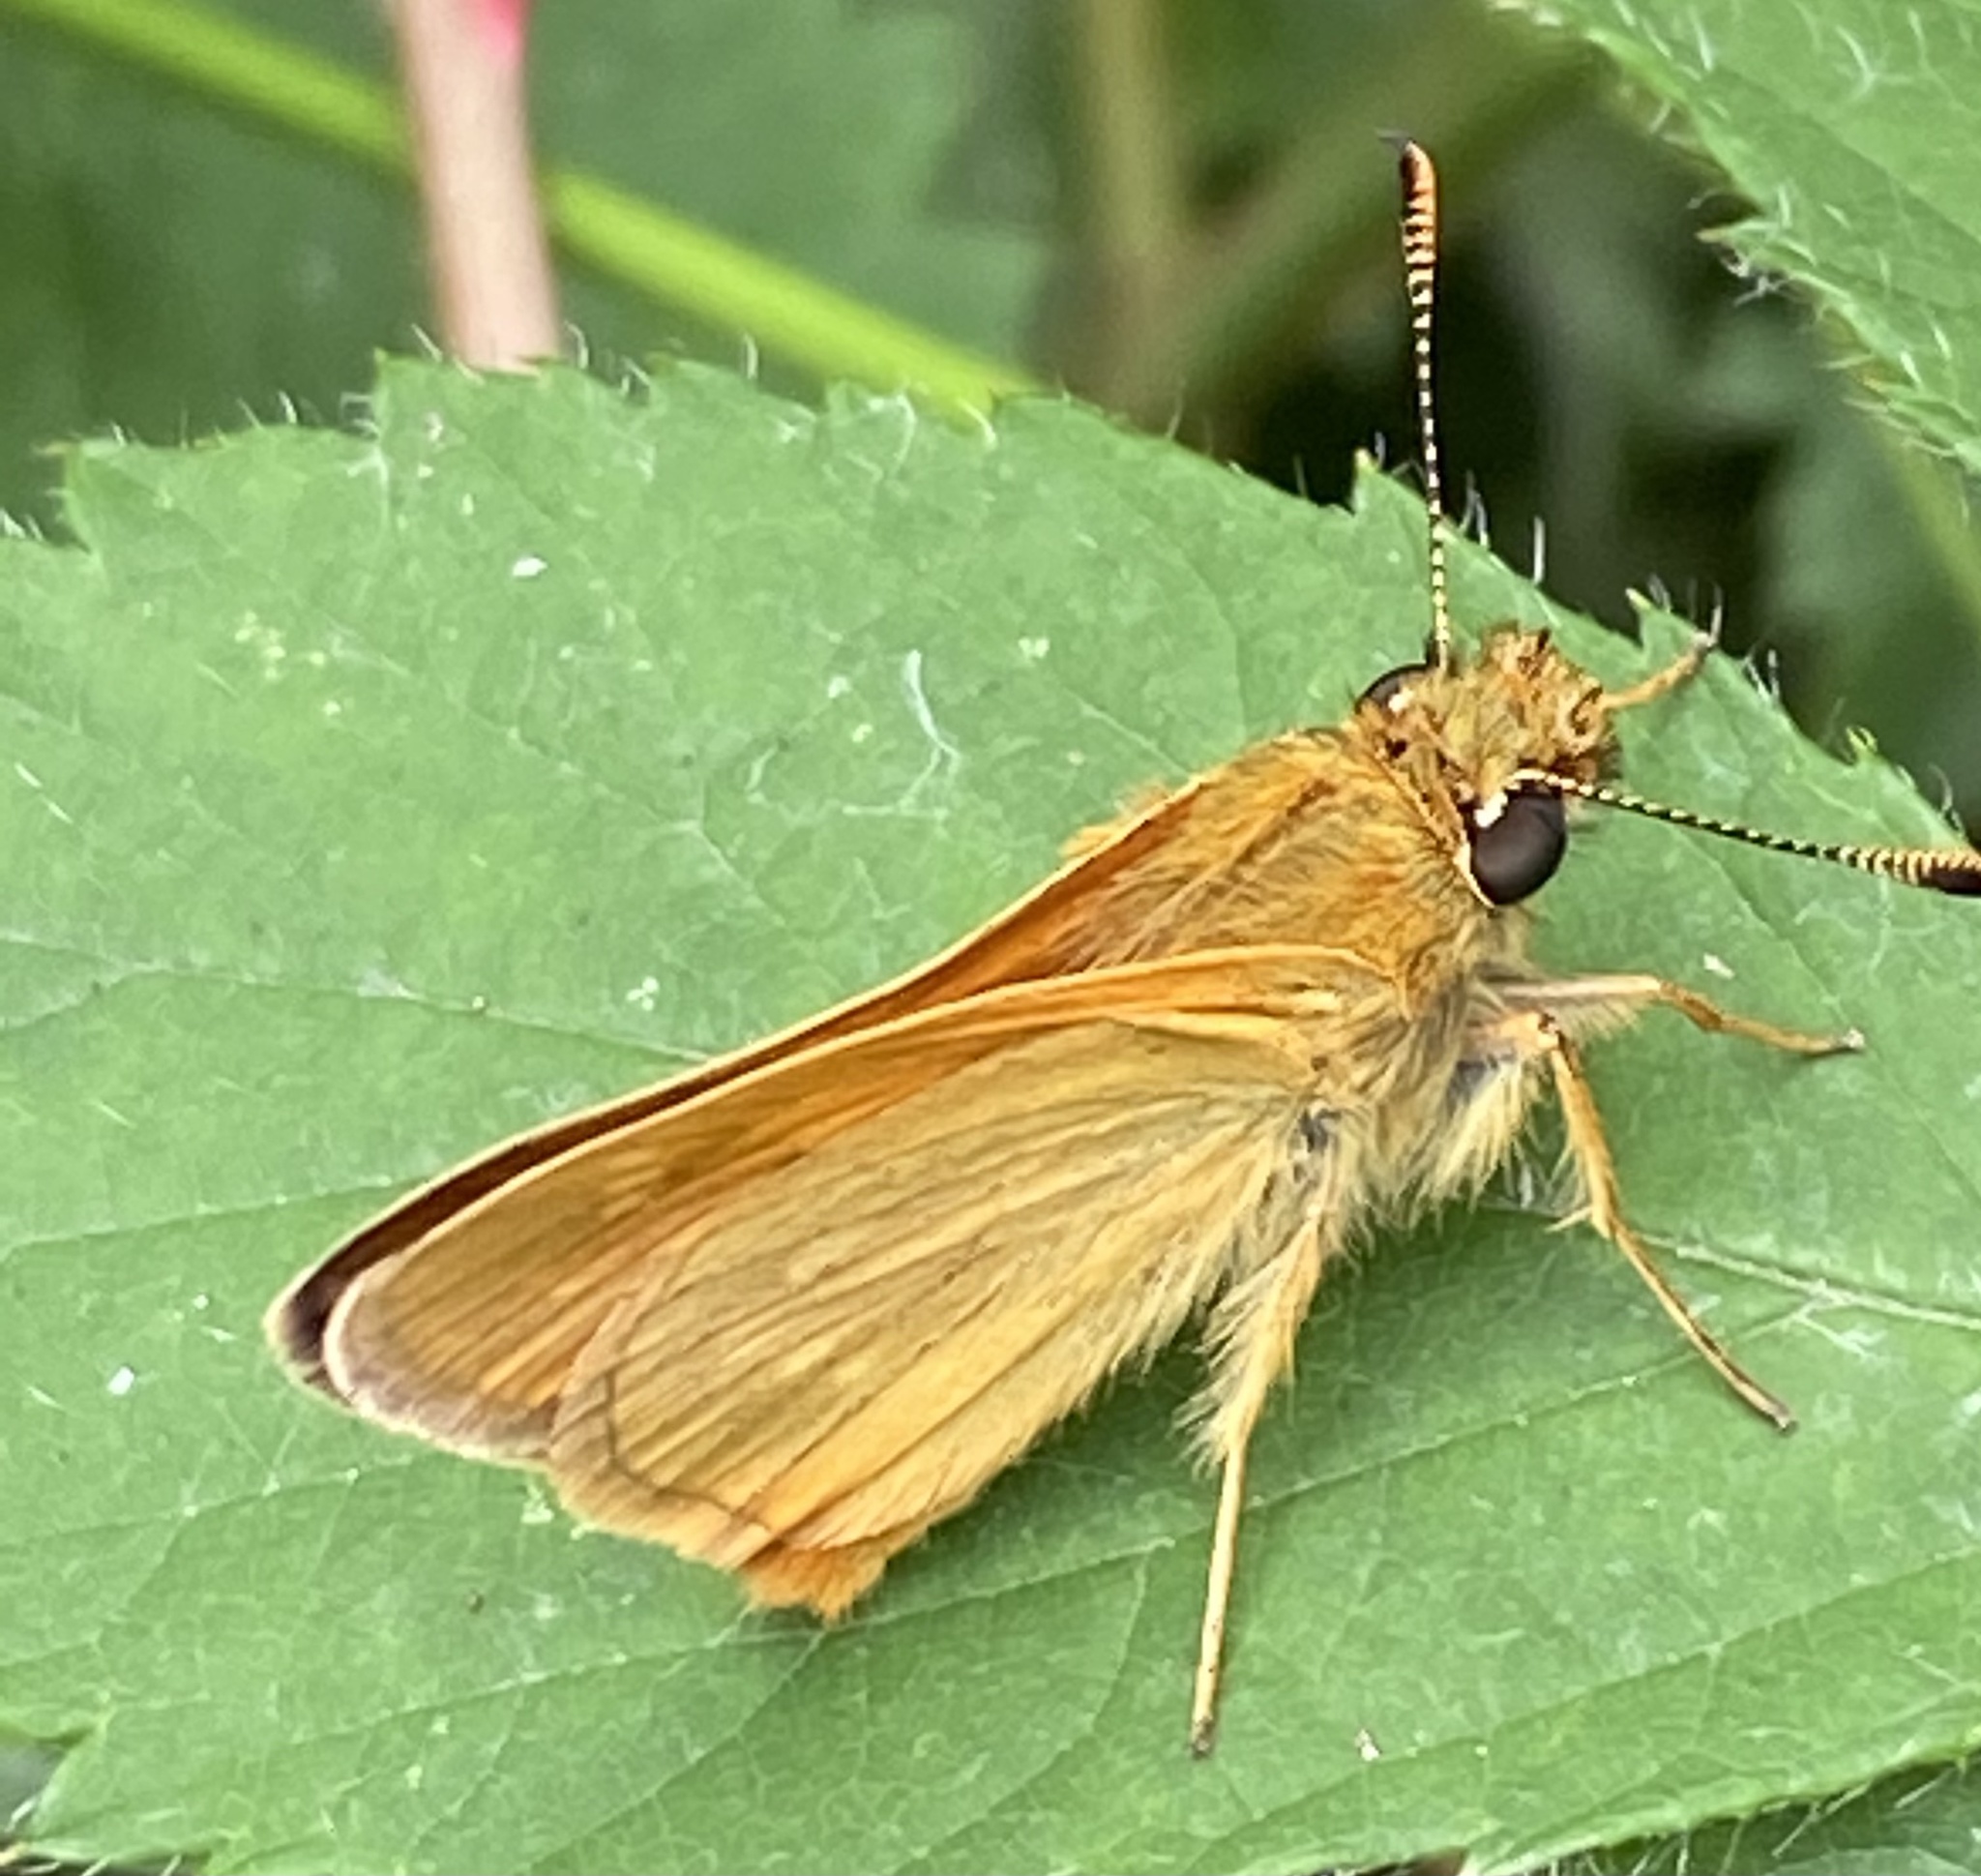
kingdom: Animalia
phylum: Arthropoda
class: Insecta
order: Lepidoptera
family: Hesperiidae
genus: Ochlodes
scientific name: Ochlodes venata
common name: Large skipper
